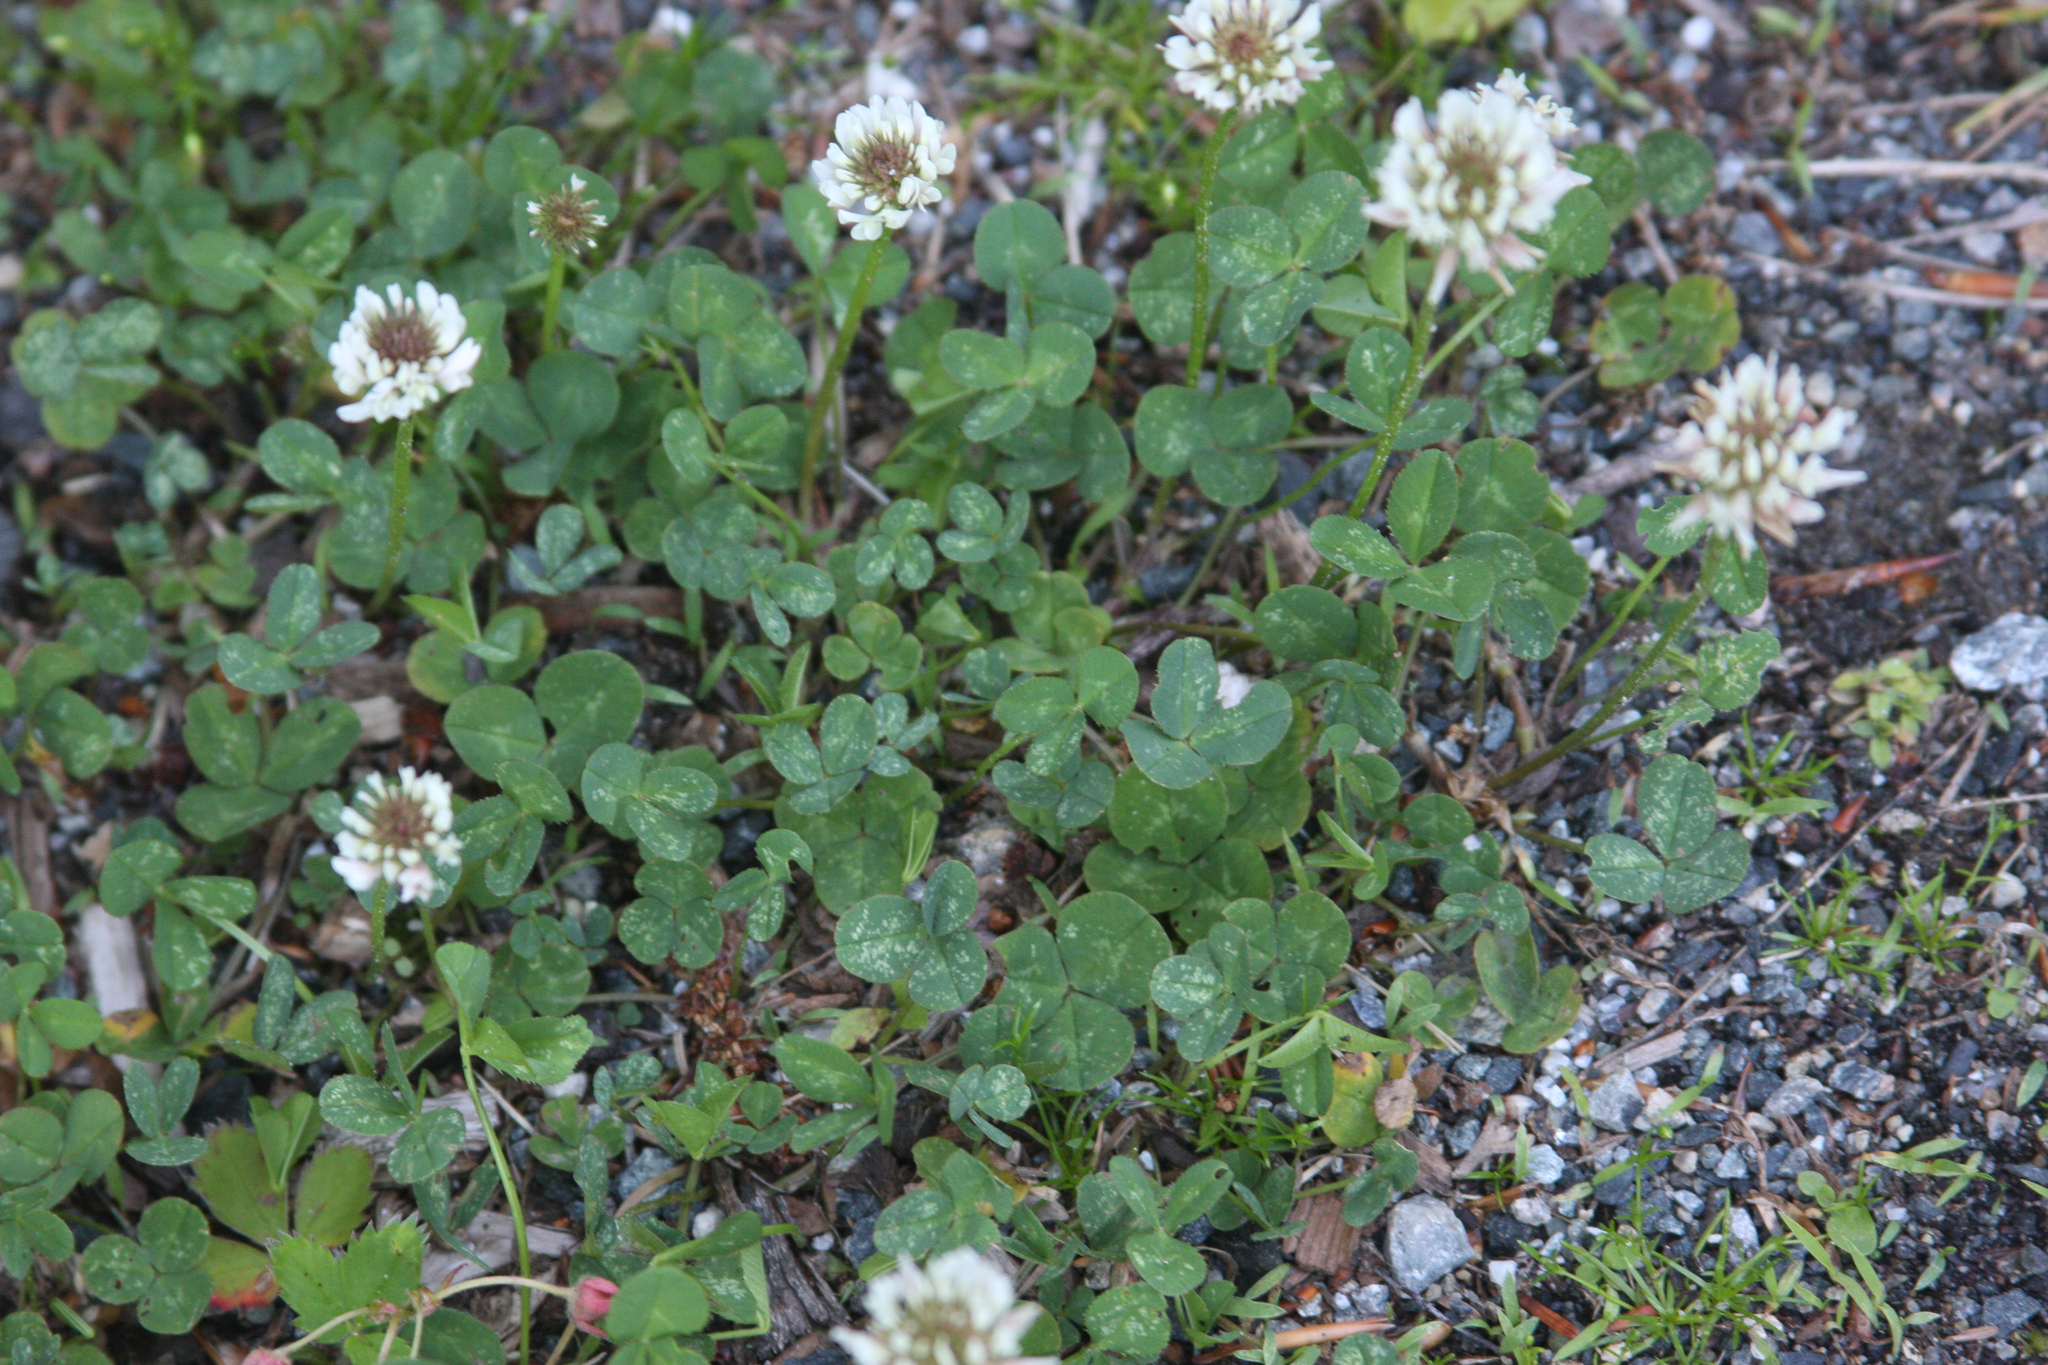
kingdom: Plantae
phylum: Tracheophyta
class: Magnoliopsida
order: Fabales
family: Fabaceae
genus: Trifolium
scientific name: Trifolium repens
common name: White clover
